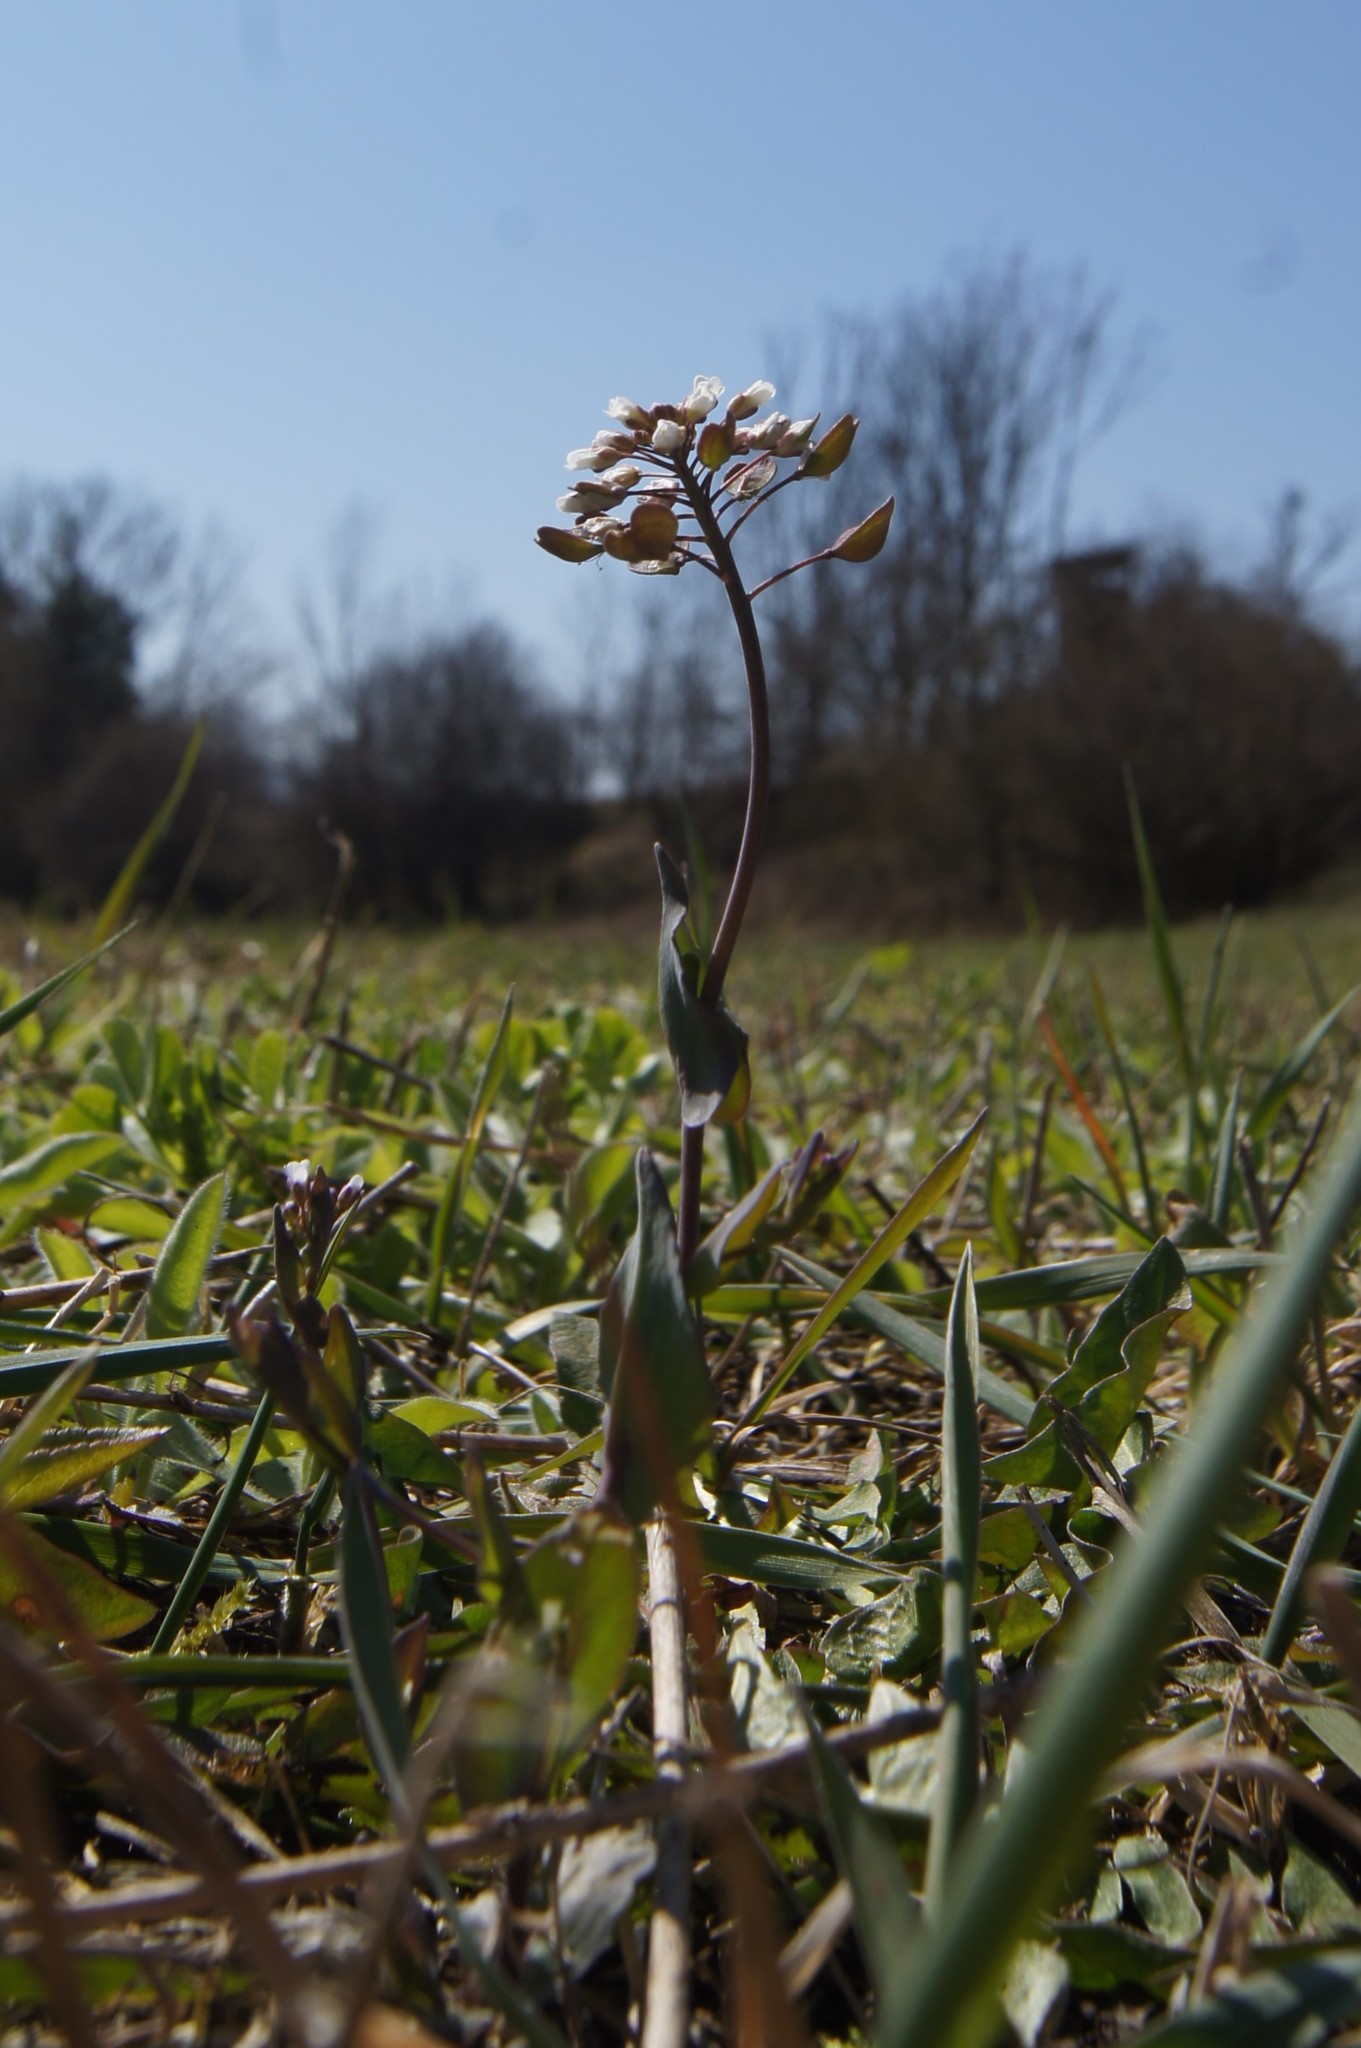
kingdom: Plantae
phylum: Tracheophyta
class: Magnoliopsida
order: Brassicales
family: Brassicaceae
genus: Noccaea
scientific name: Noccaea perfoliata
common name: Perfoliate pennycress
